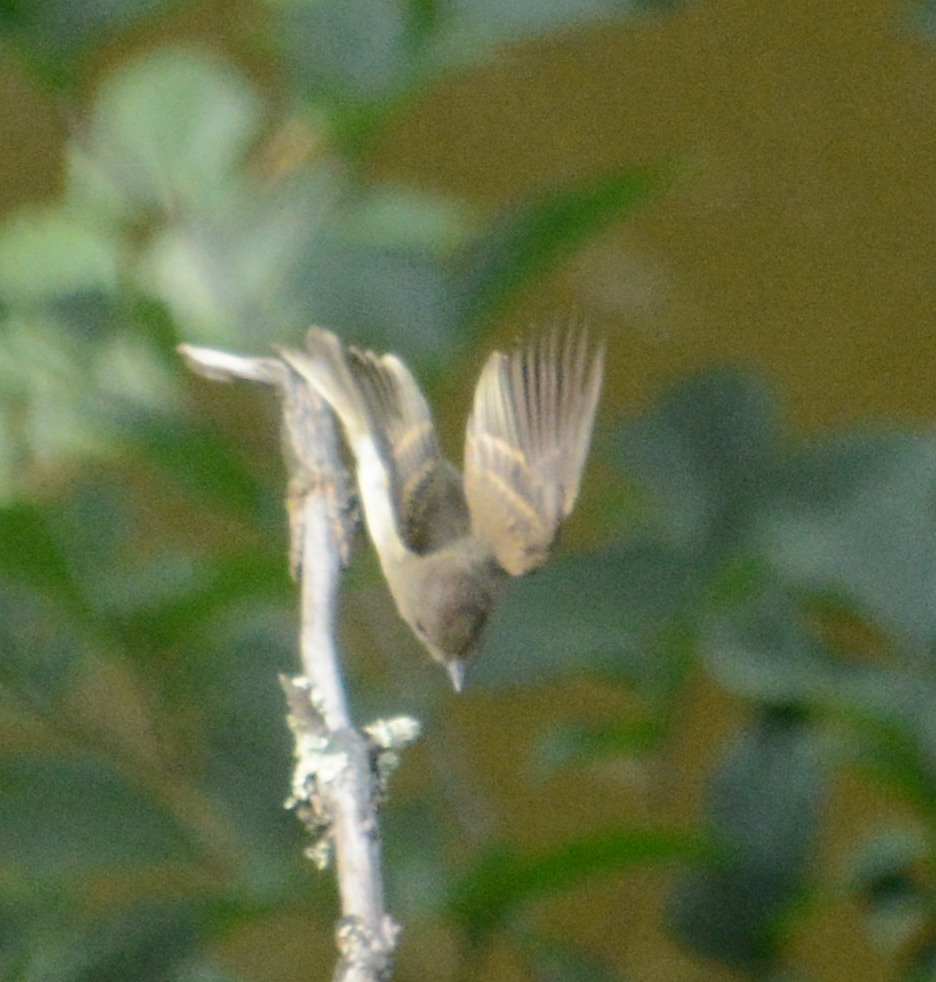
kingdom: Animalia
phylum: Chordata
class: Aves
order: Passeriformes
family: Tyrannidae
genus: Sayornis
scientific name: Sayornis phoebe
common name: Eastern phoebe
